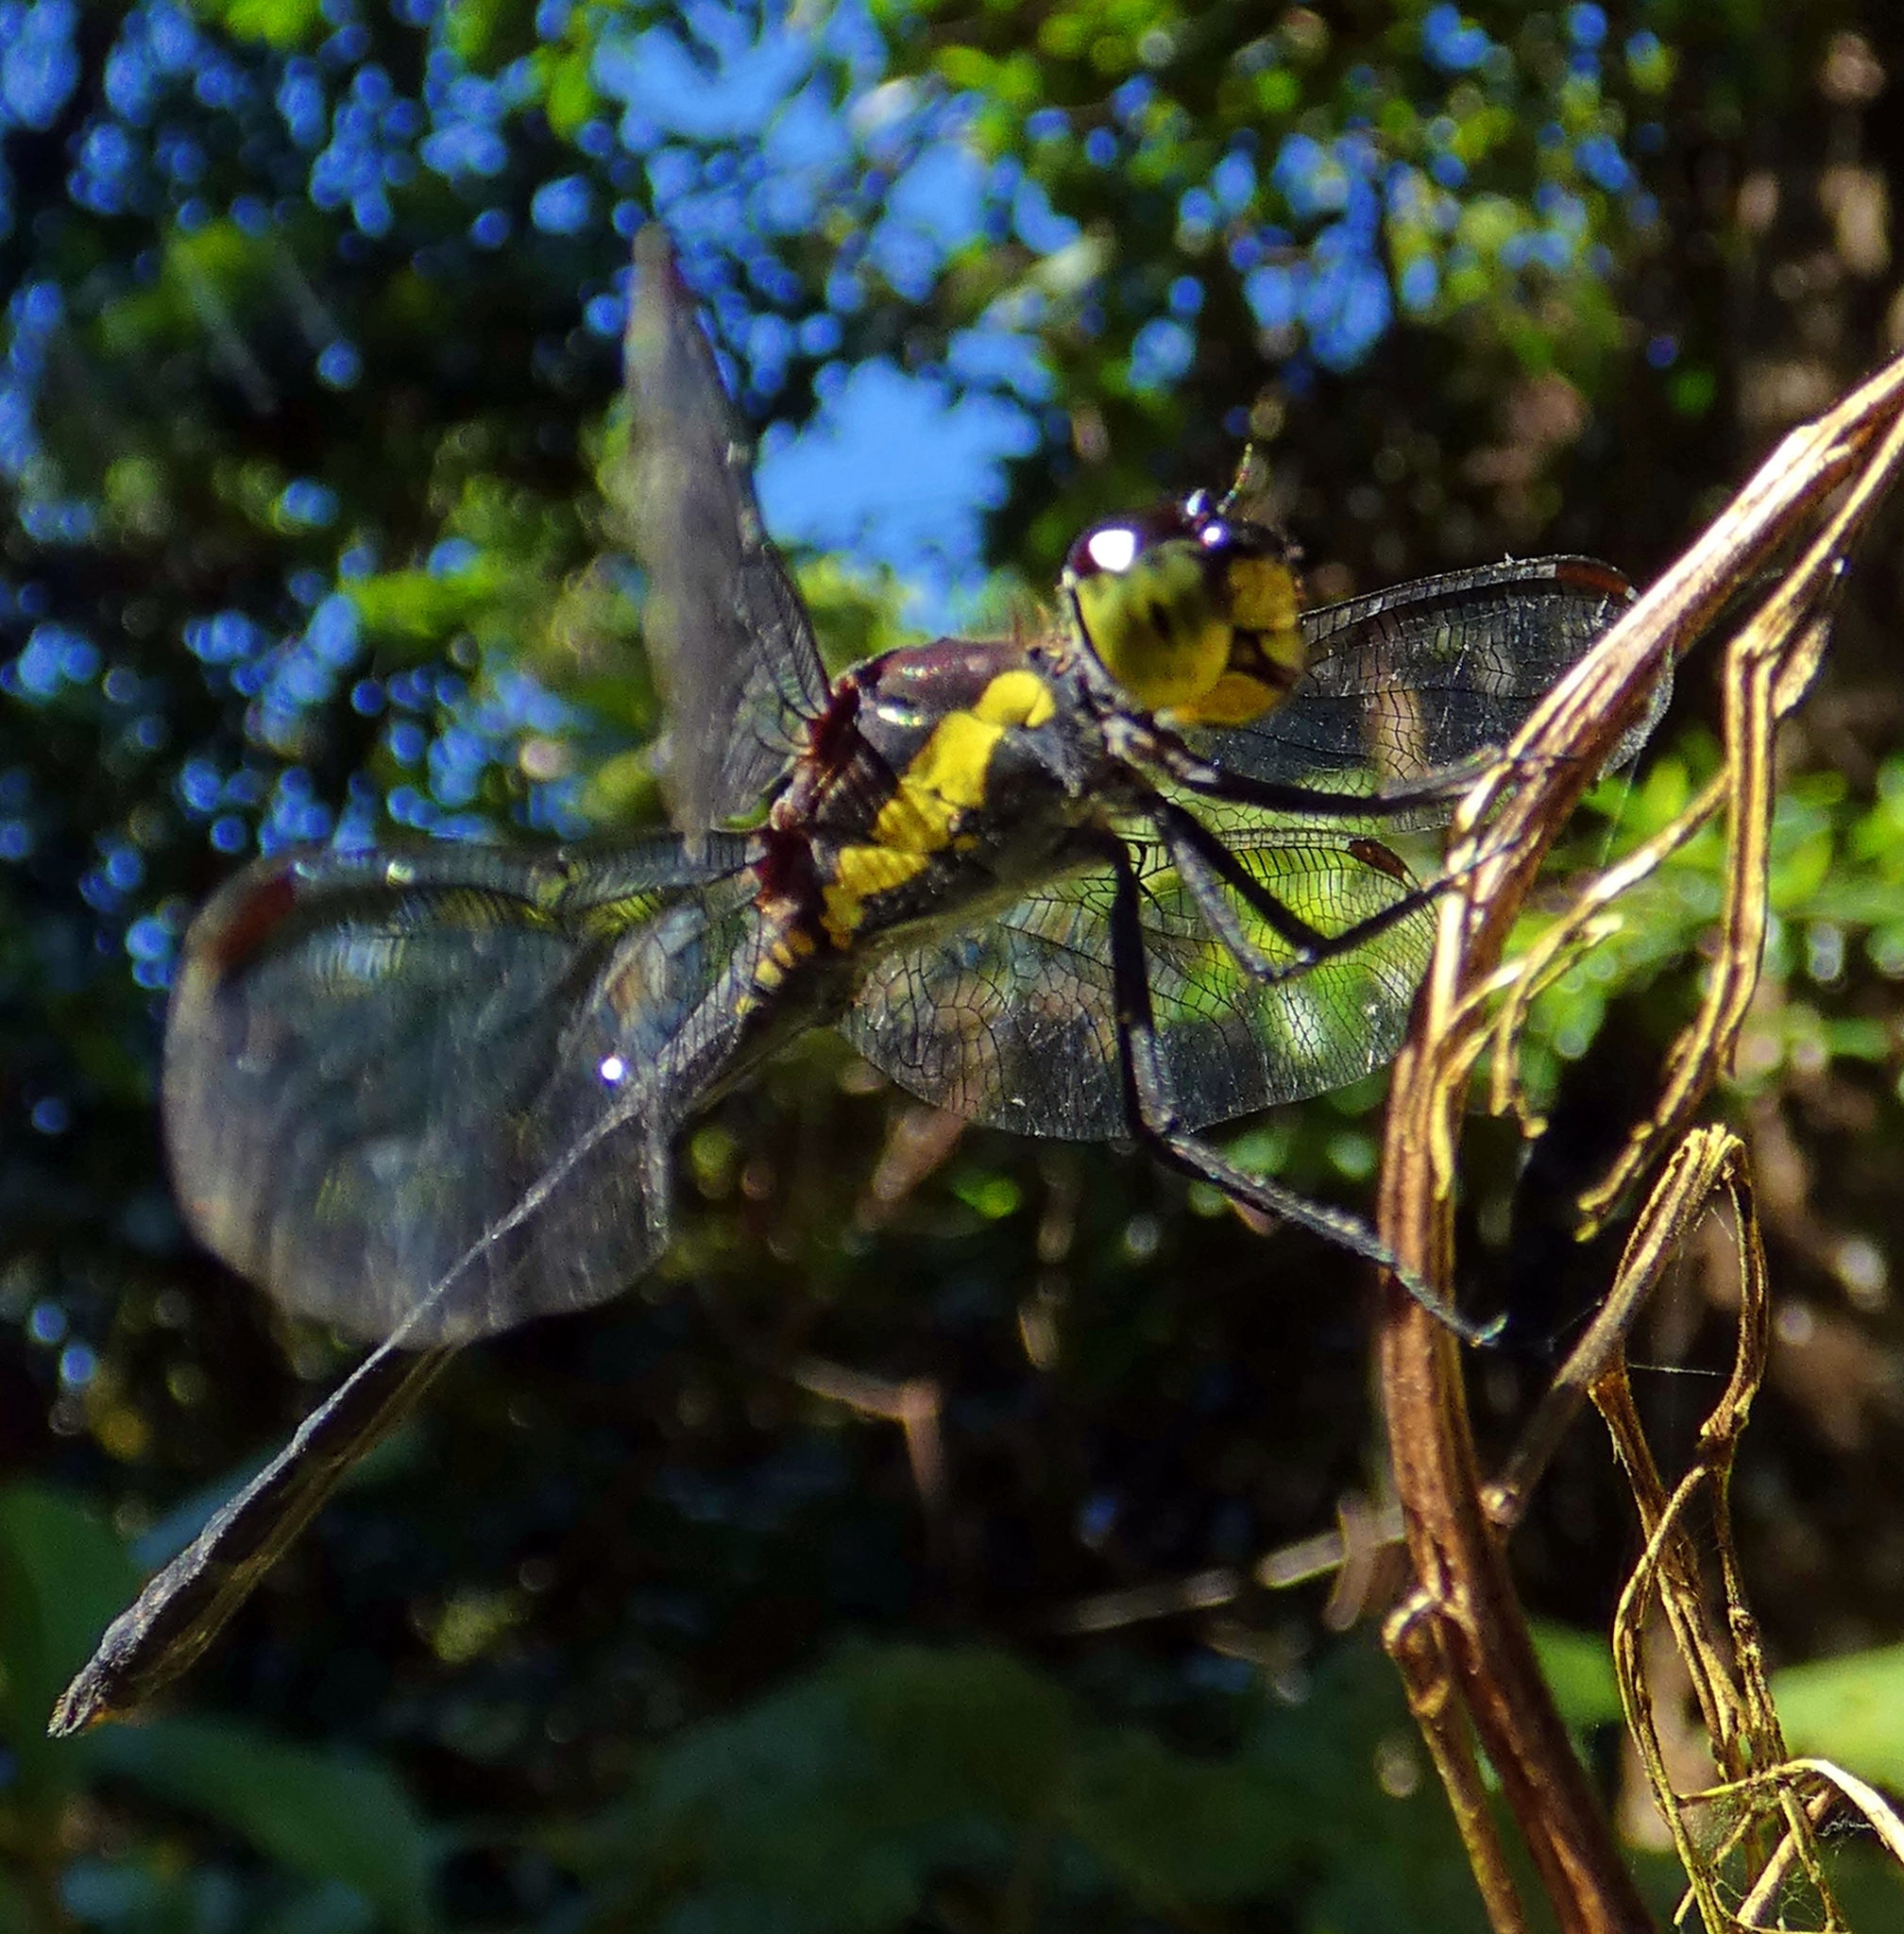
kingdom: Animalia
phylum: Arthropoda
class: Insecta
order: Odonata
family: Libellulidae
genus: Agrionoptera
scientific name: Agrionoptera longitudinalis
